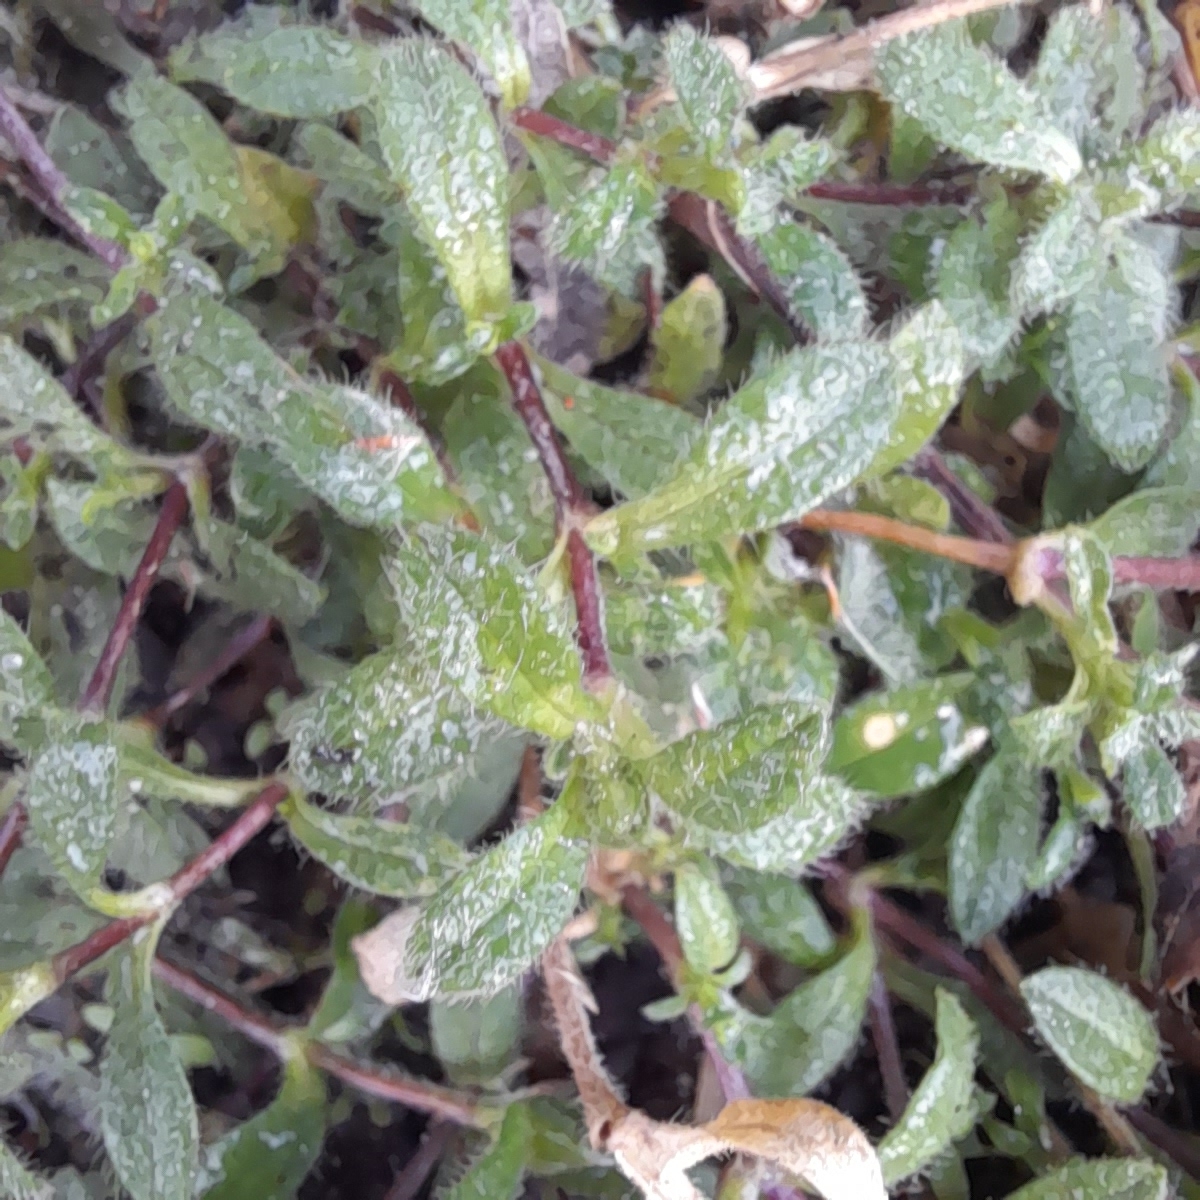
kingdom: Plantae
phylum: Tracheophyta
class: Magnoliopsida
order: Caryophyllales
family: Caryophyllaceae
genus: Cerastium
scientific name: Cerastium holosteoides
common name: Big chickweed
